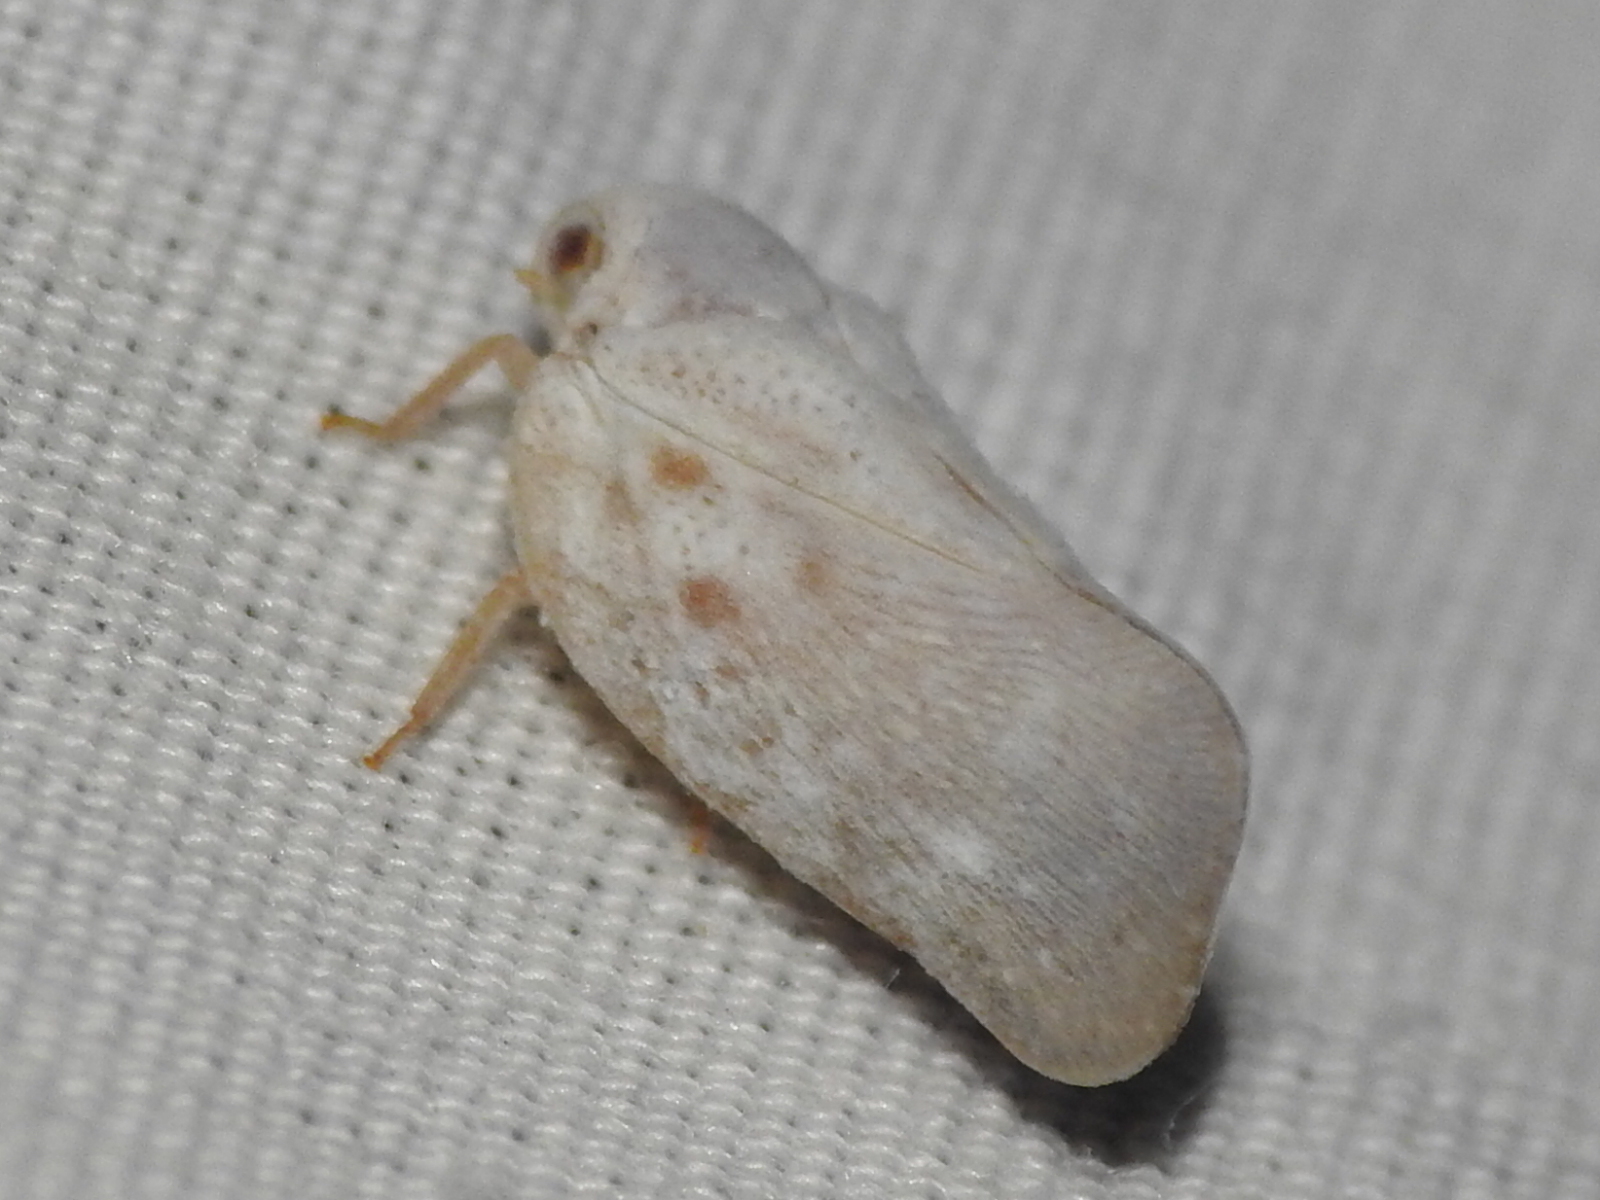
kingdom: Animalia
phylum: Arthropoda
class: Insecta
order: Hemiptera
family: Flatidae
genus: Metcalfa
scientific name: Metcalfa pruinosa
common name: Citrus flatid planthopper
